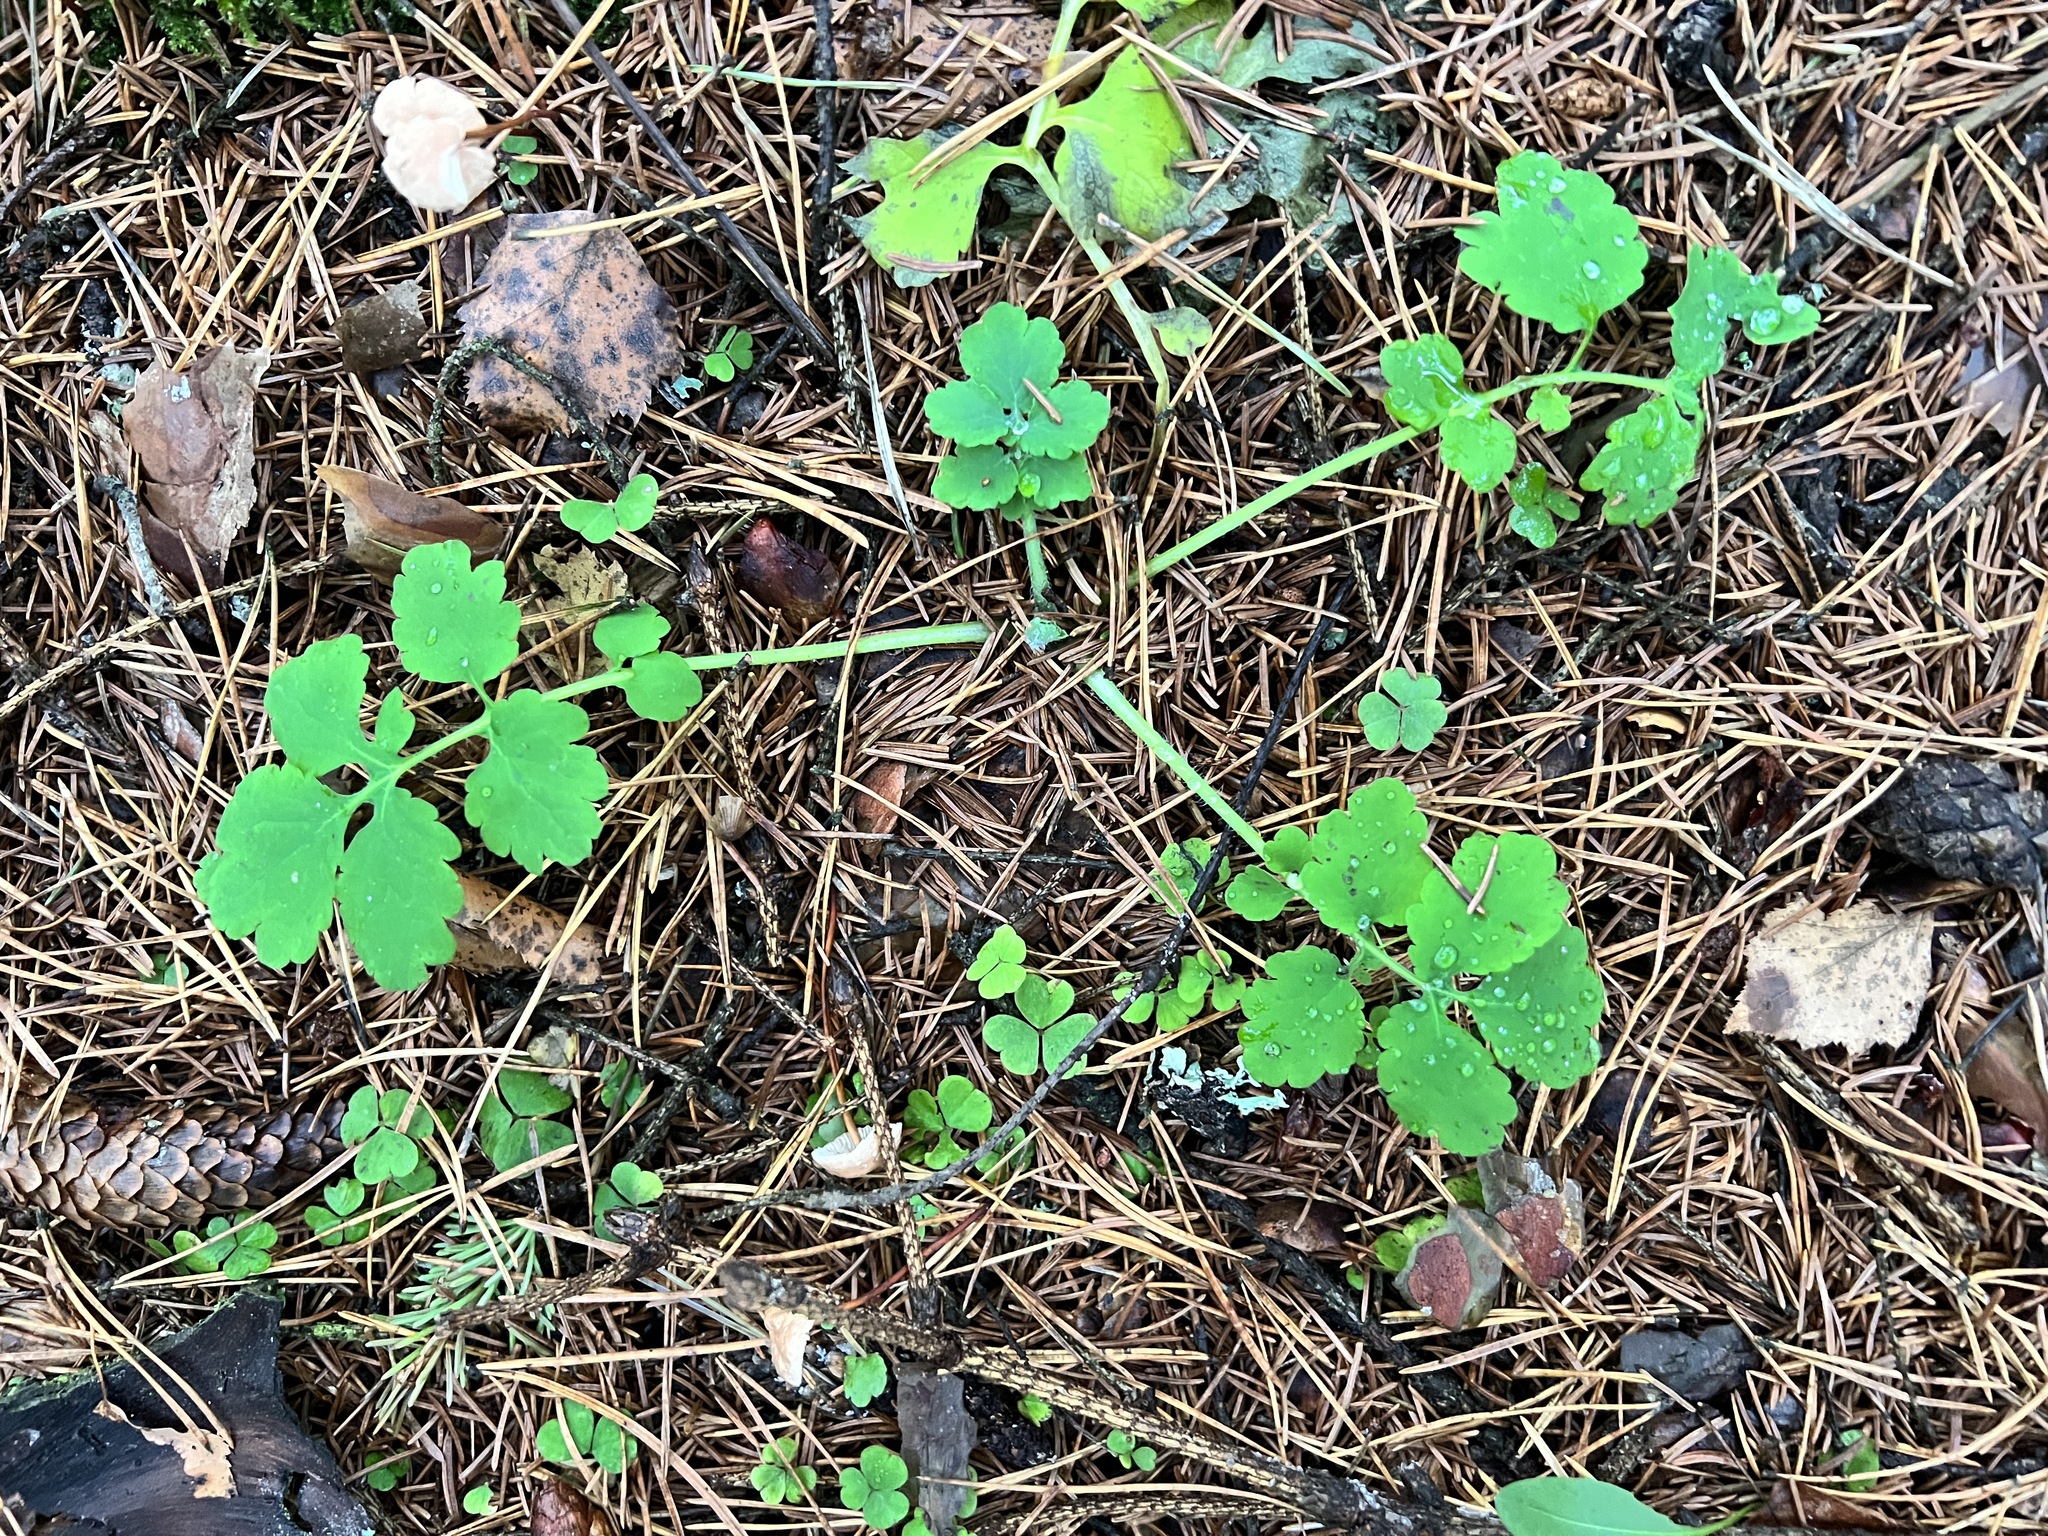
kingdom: Plantae
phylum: Tracheophyta
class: Magnoliopsida
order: Ranunculales
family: Papaveraceae
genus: Chelidonium
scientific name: Chelidonium majus
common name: Greater celandine
